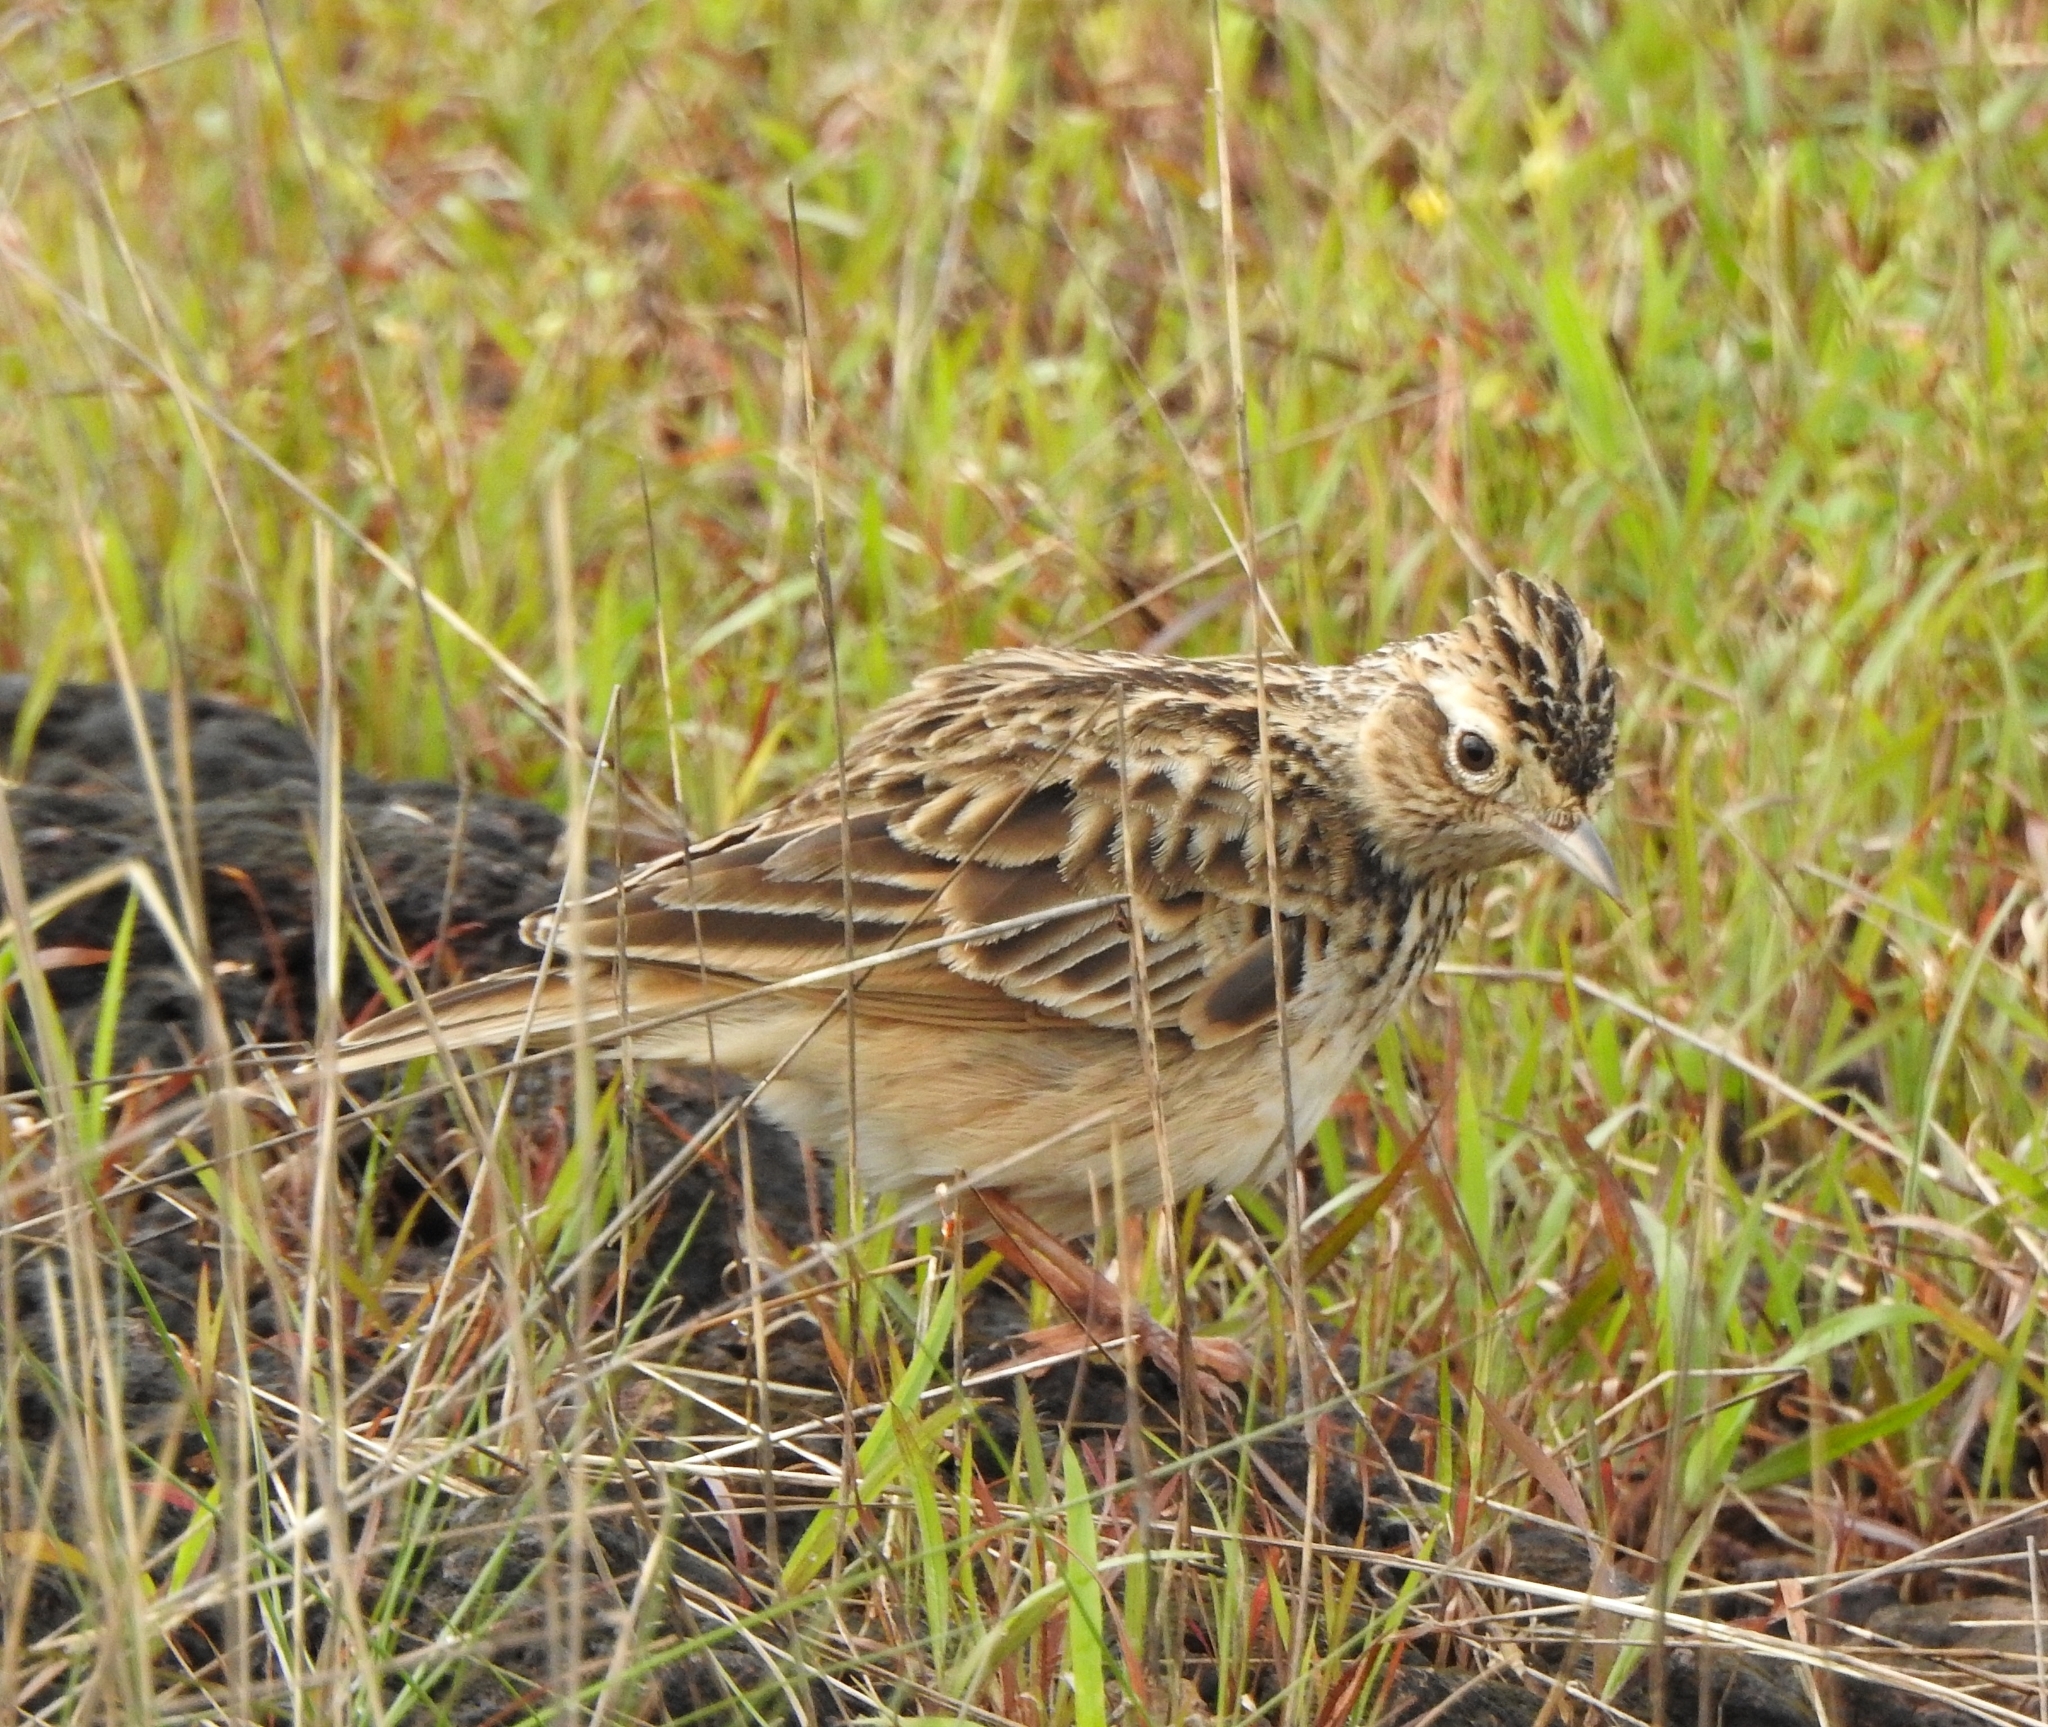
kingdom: Animalia
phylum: Chordata
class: Aves
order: Passeriformes
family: Alaudidae
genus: Alauda
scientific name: Alauda gulgula
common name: Oriental skylark
